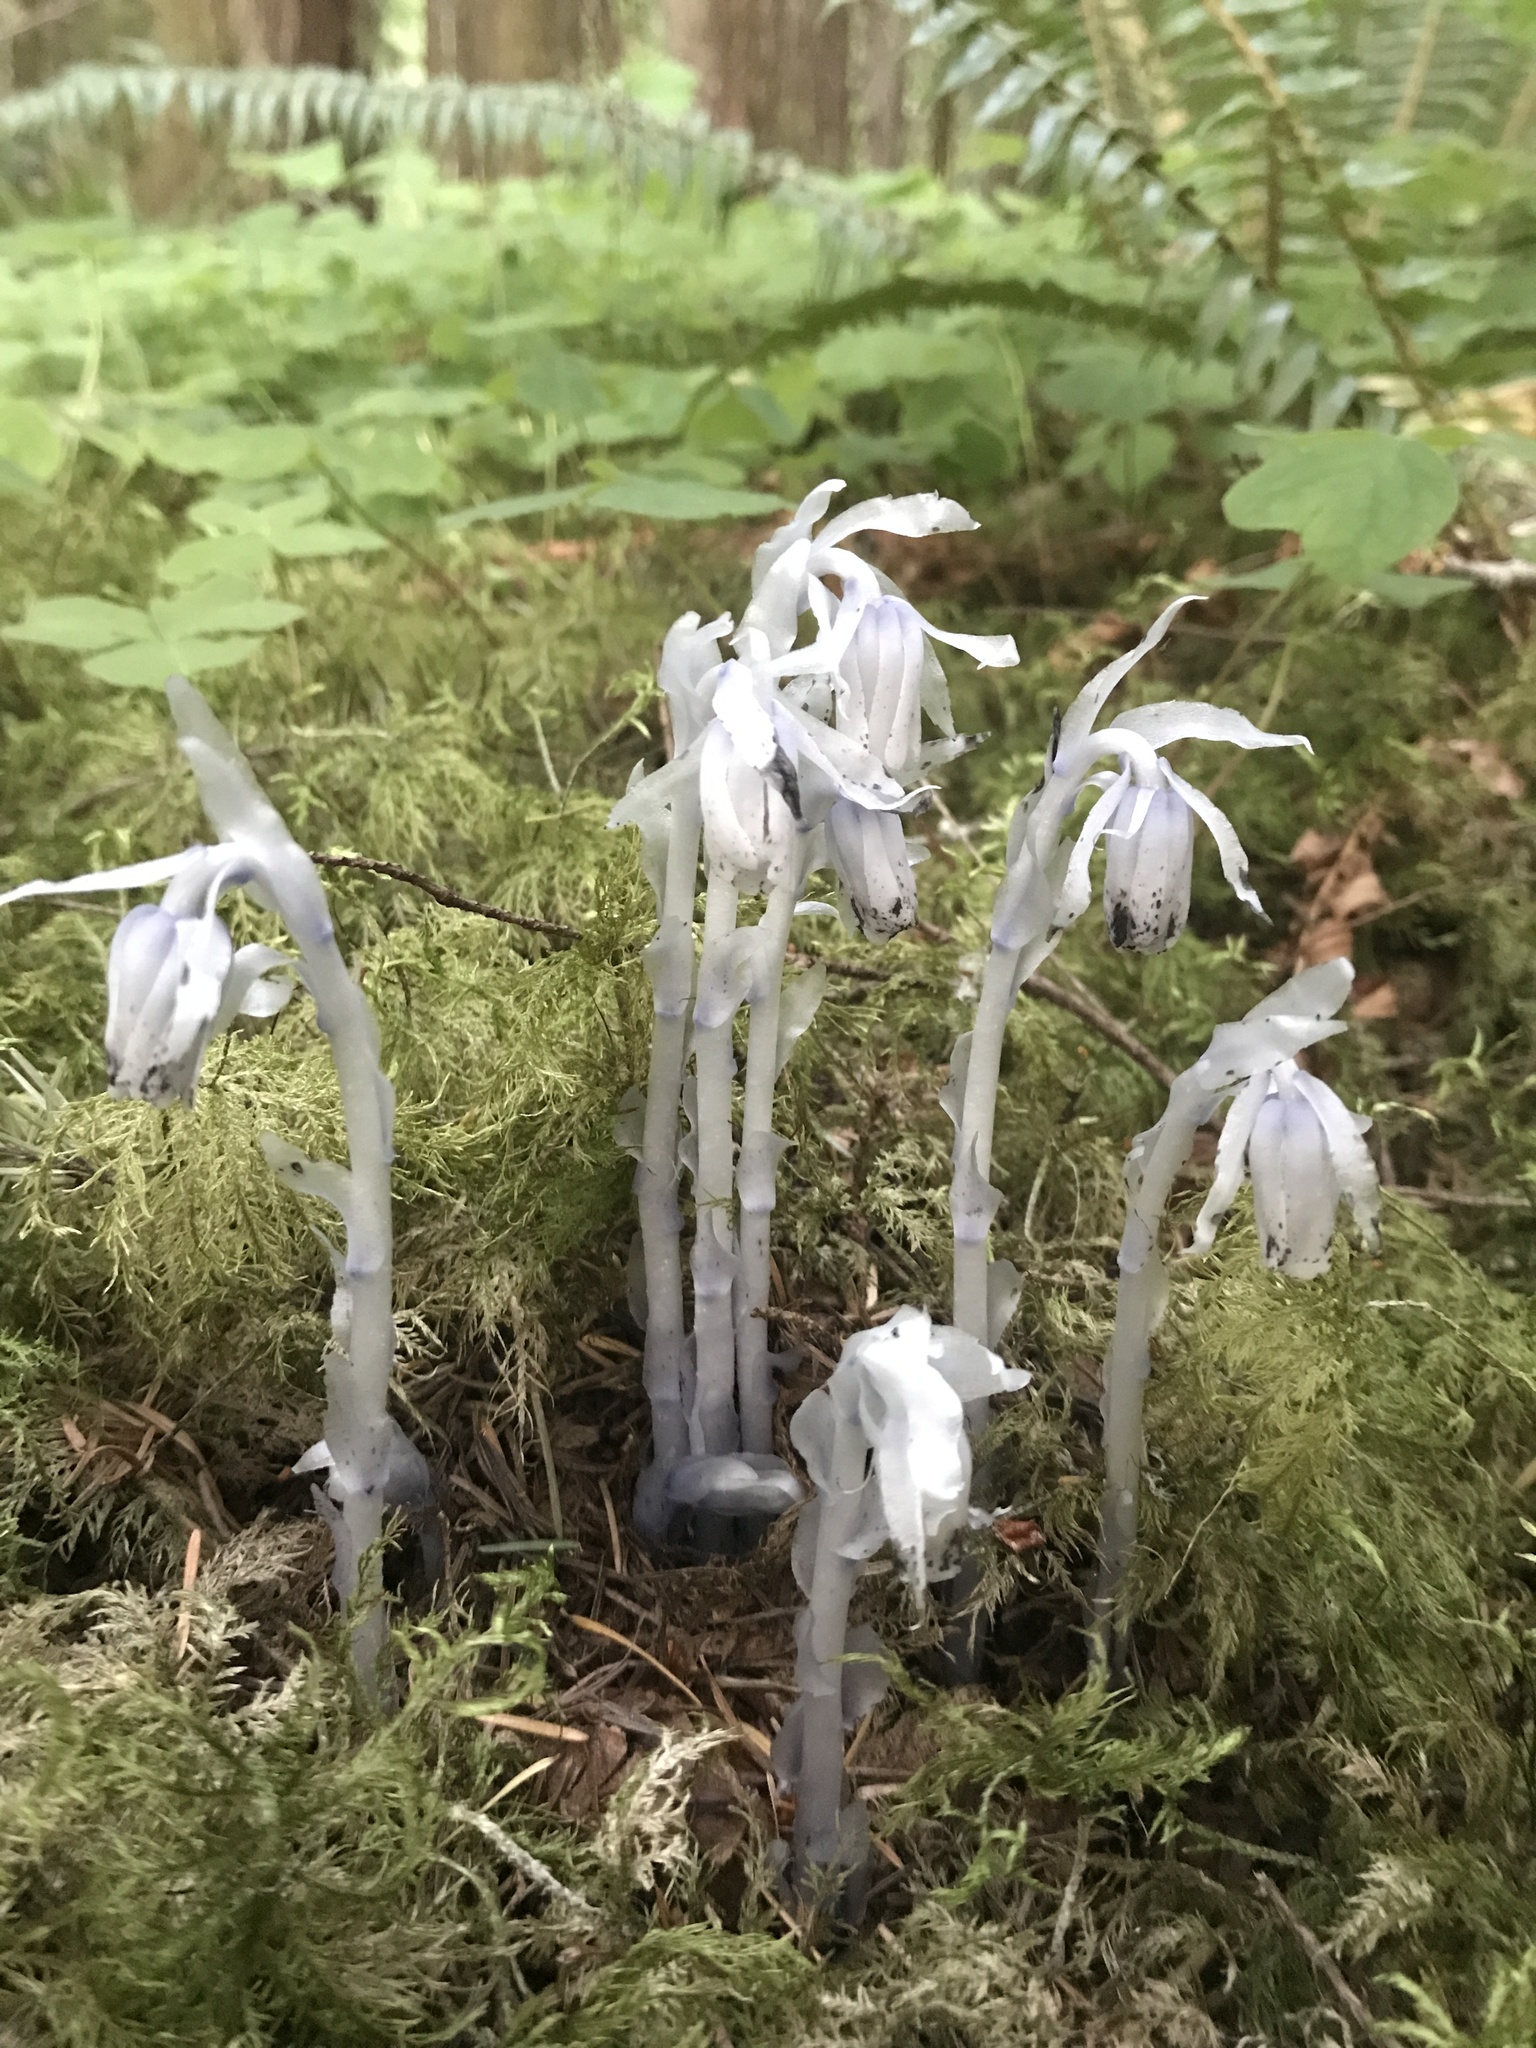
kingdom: Plantae
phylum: Tracheophyta
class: Magnoliopsida
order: Ericales
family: Ericaceae
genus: Monotropa
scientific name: Monotropa uniflora
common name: Convulsion root
